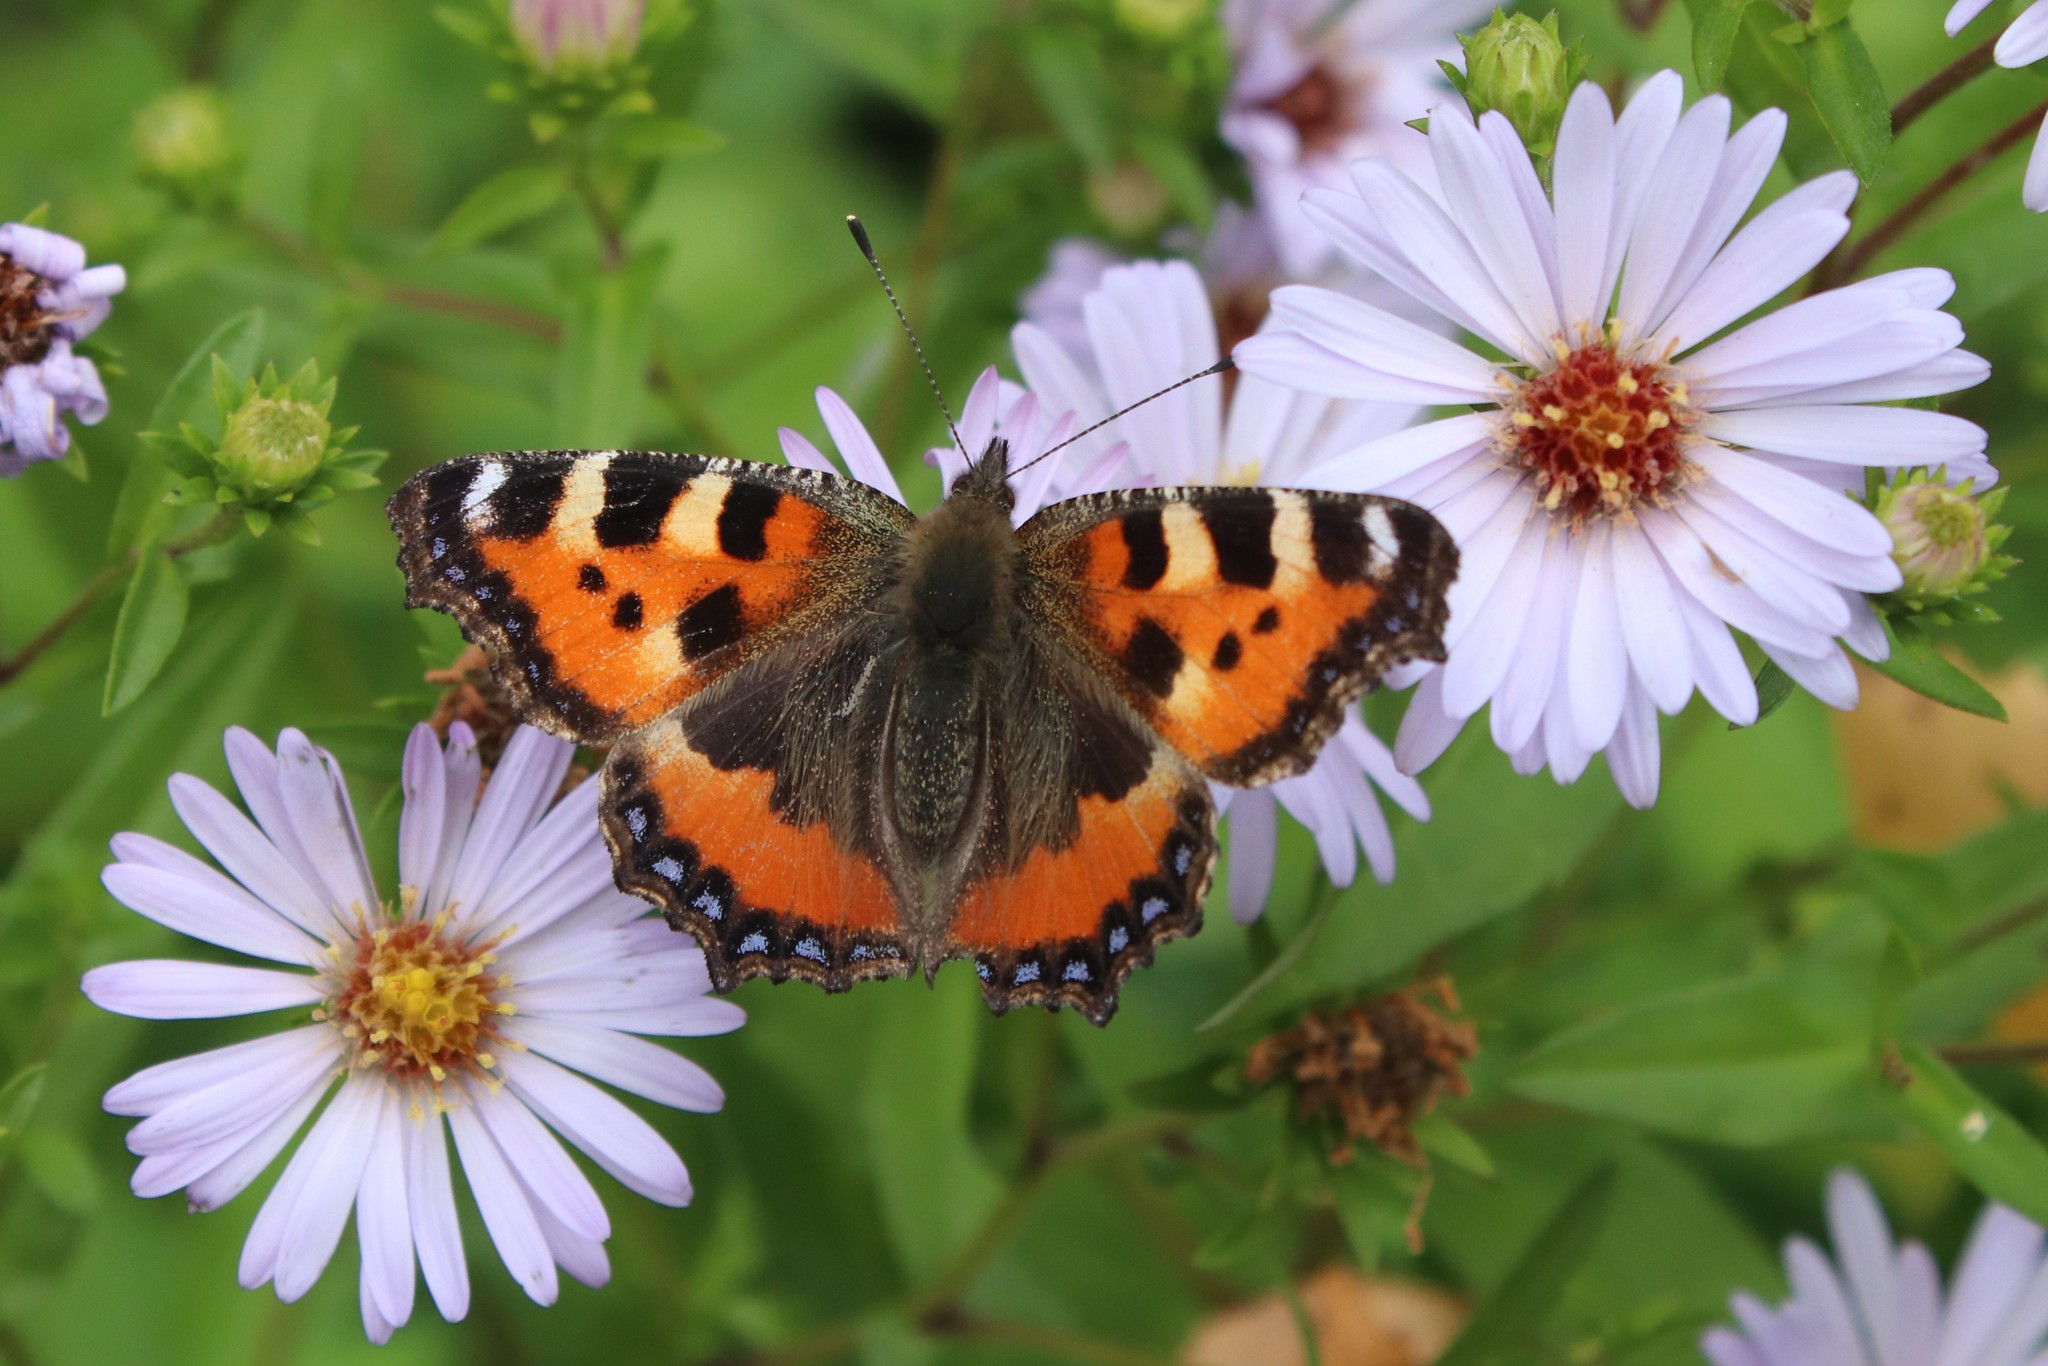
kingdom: Animalia
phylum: Arthropoda
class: Insecta
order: Lepidoptera
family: Nymphalidae
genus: Aglais
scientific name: Aglais urticae
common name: Small tortoiseshell
